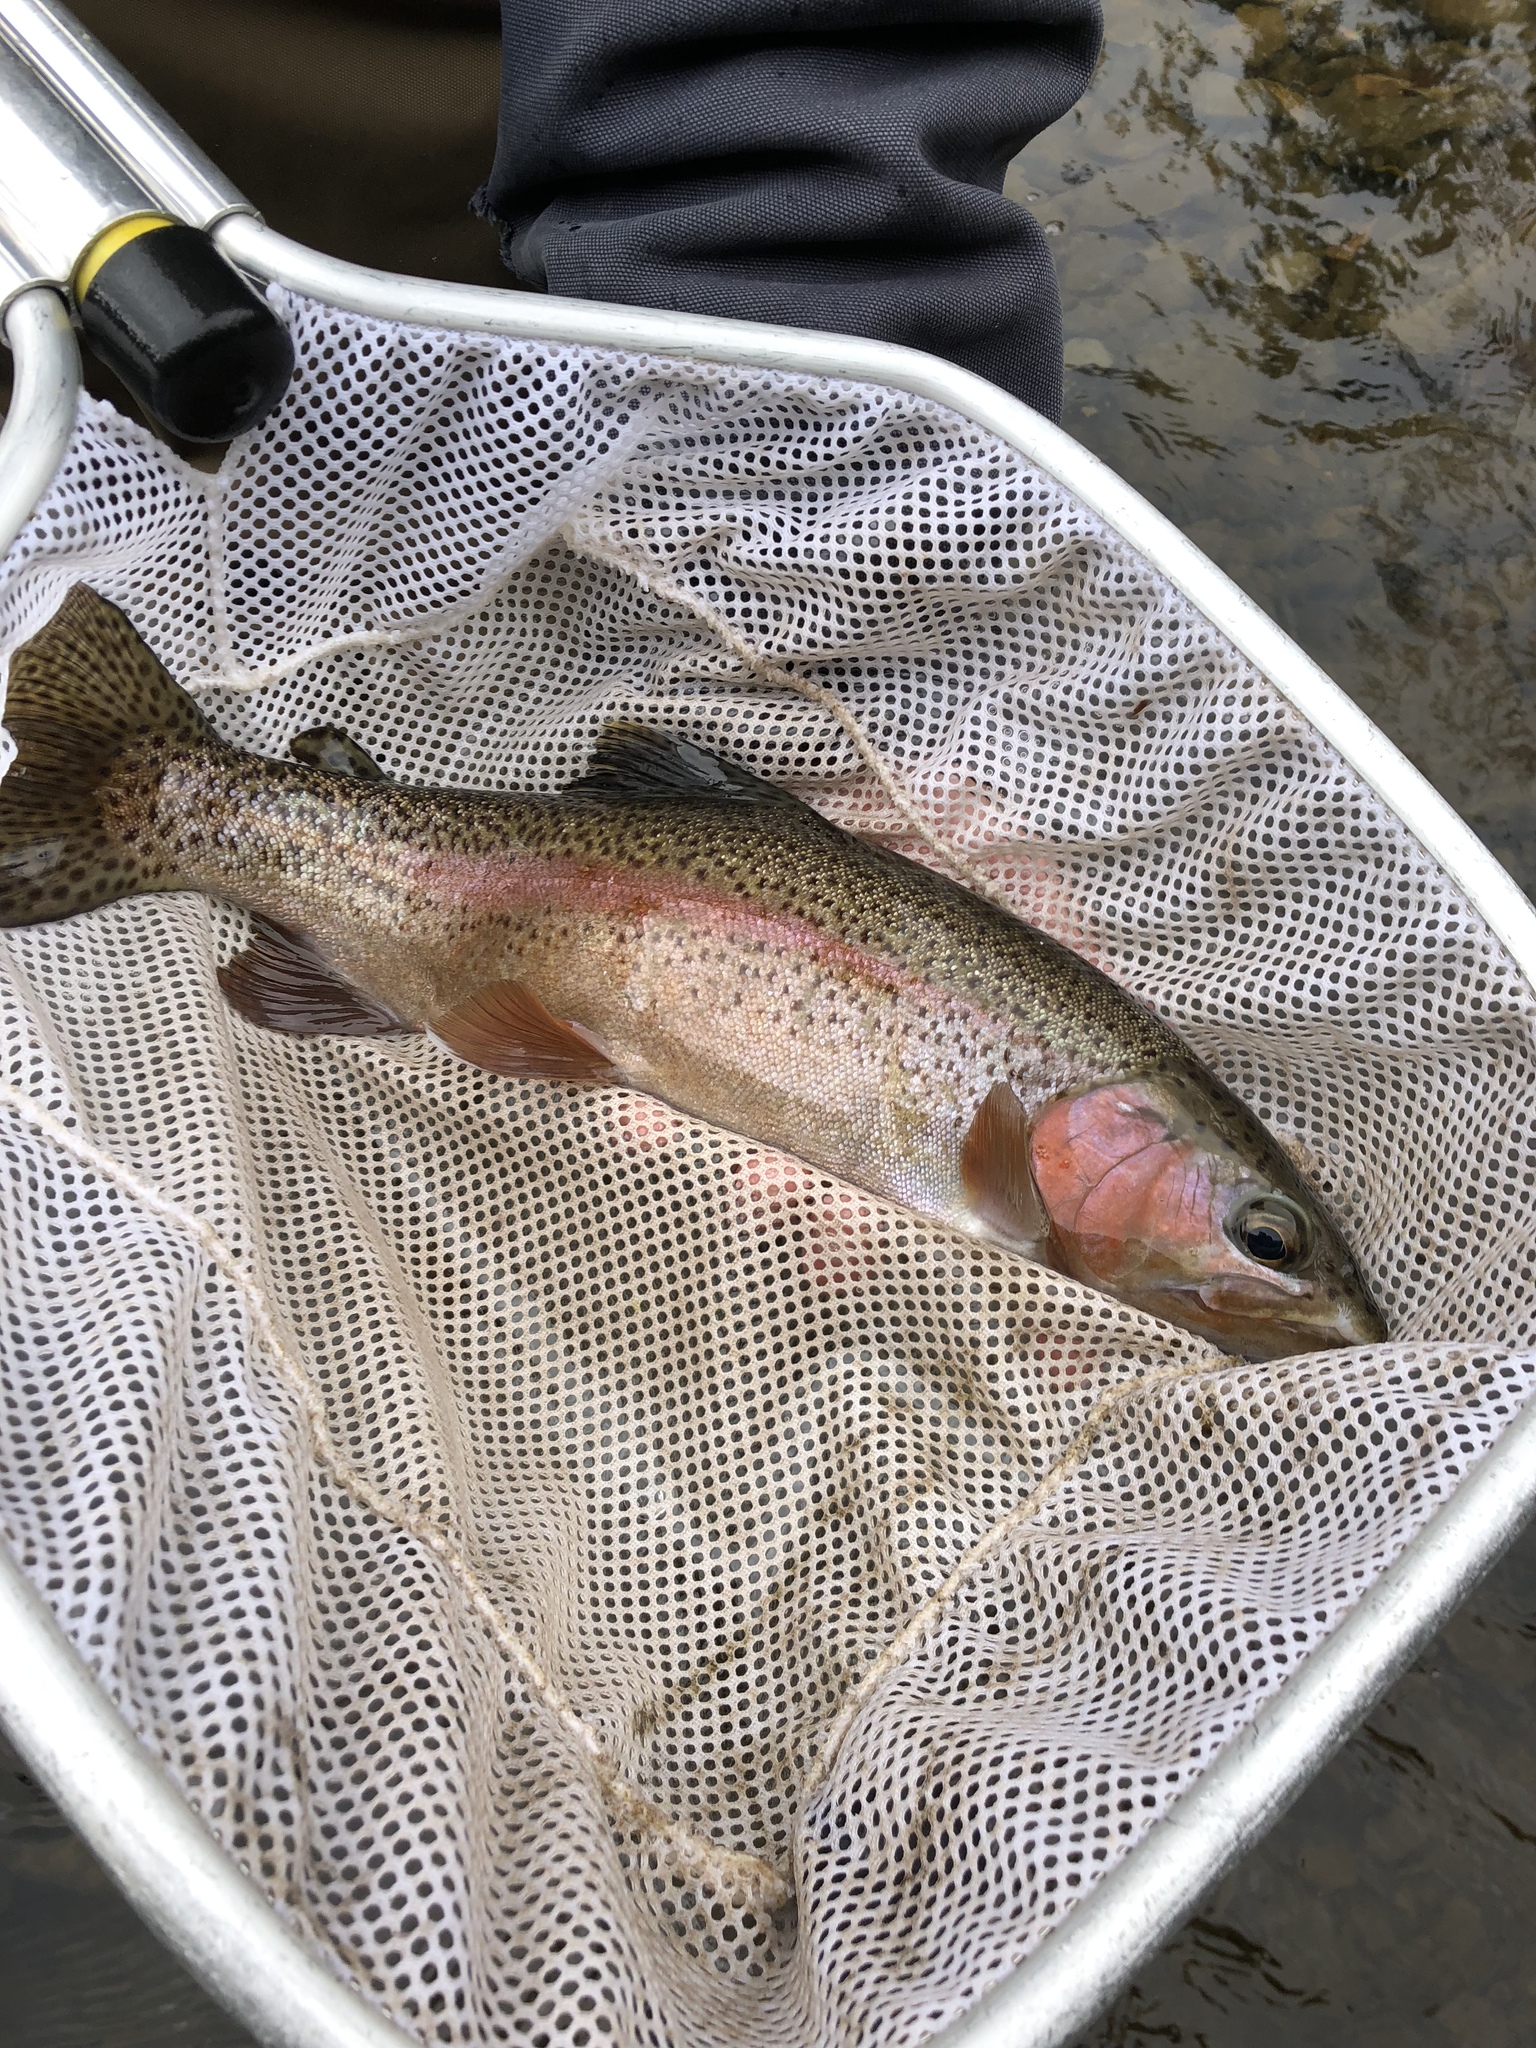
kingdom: Animalia
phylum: Chordata
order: Salmoniformes
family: Salmonidae
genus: Oncorhynchus
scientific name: Oncorhynchus mykiss
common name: Rainbow trout
